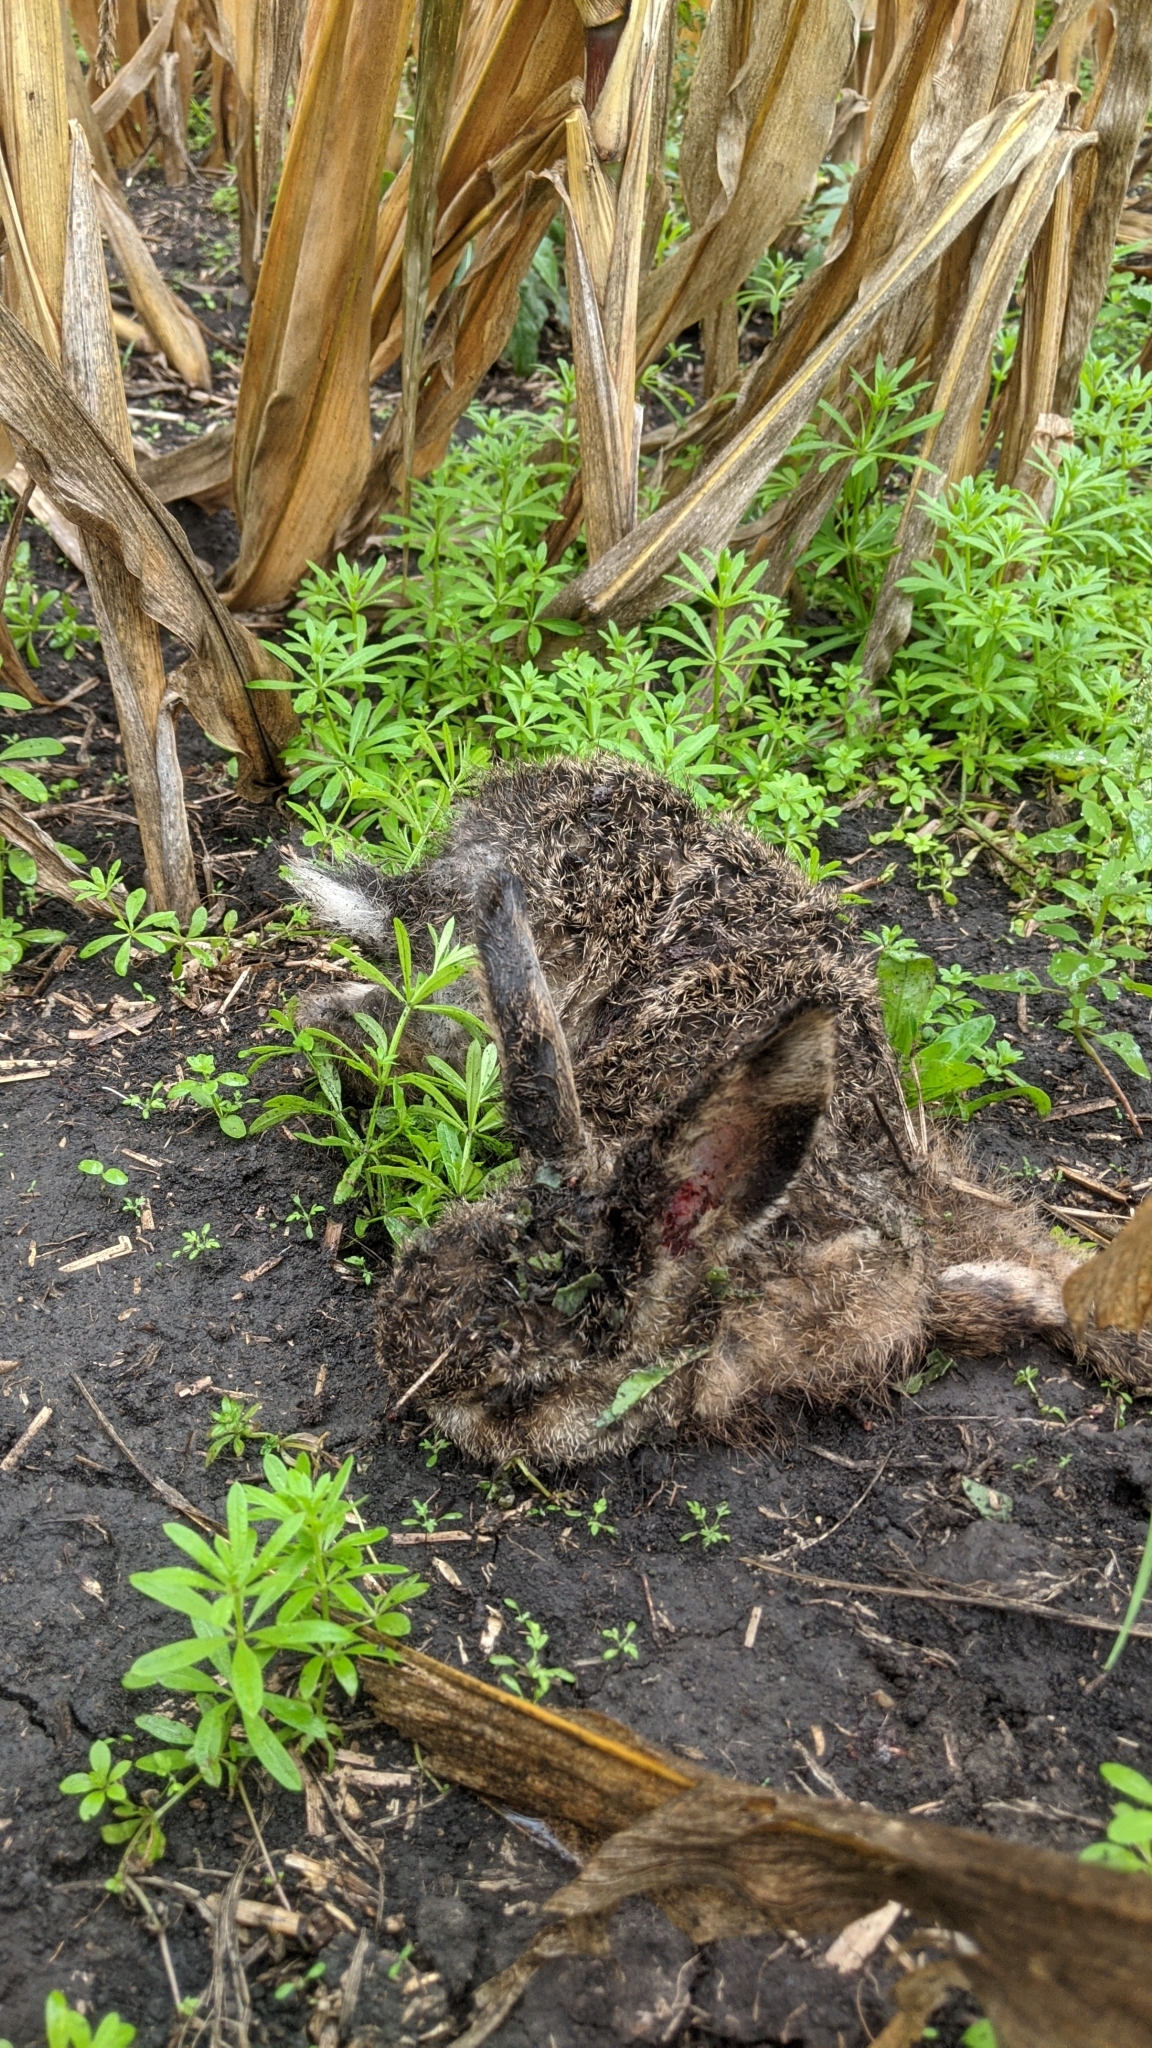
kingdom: Animalia
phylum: Chordata
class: Mammalia
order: Lagomorpha
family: Leporidae
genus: Lepus
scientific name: Lepus europaeus
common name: European hare
